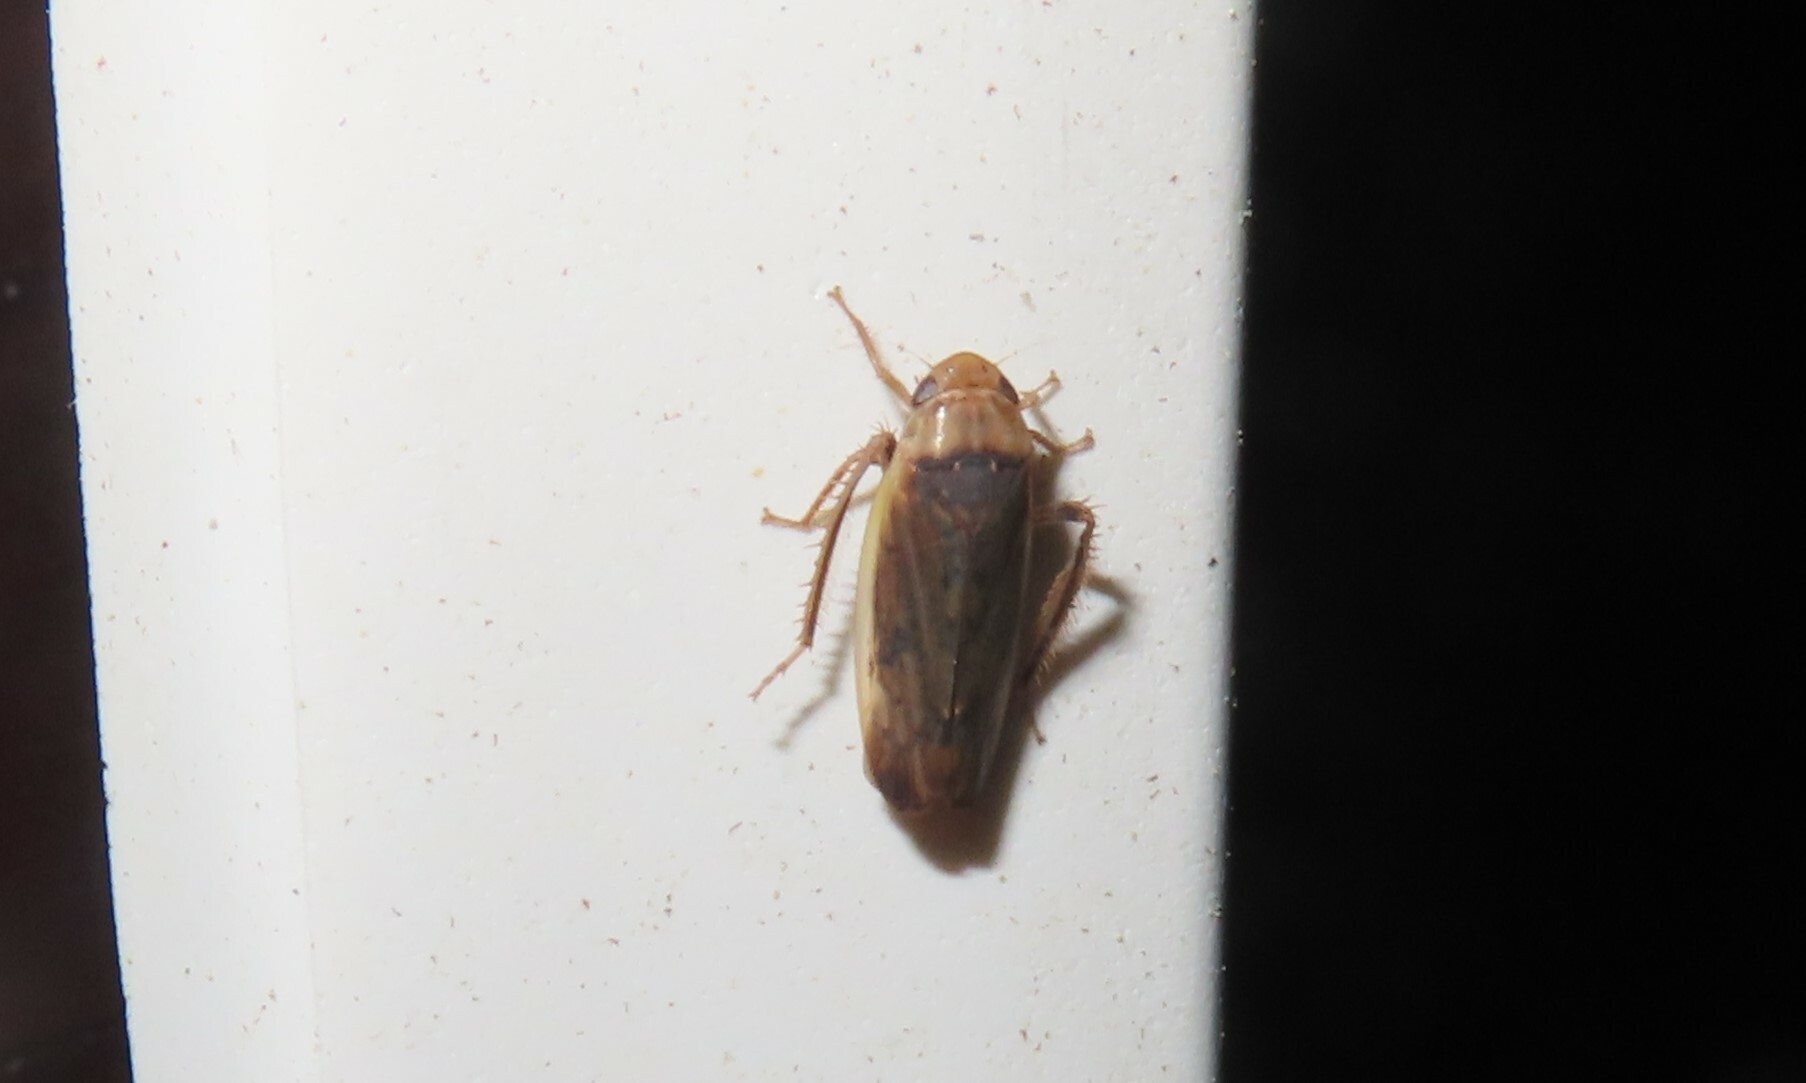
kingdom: Animalia
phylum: Arthropoda
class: Insecta
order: Hemiptera
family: Cicadellidae
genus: Ponana
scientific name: Ponana limbatipennis
